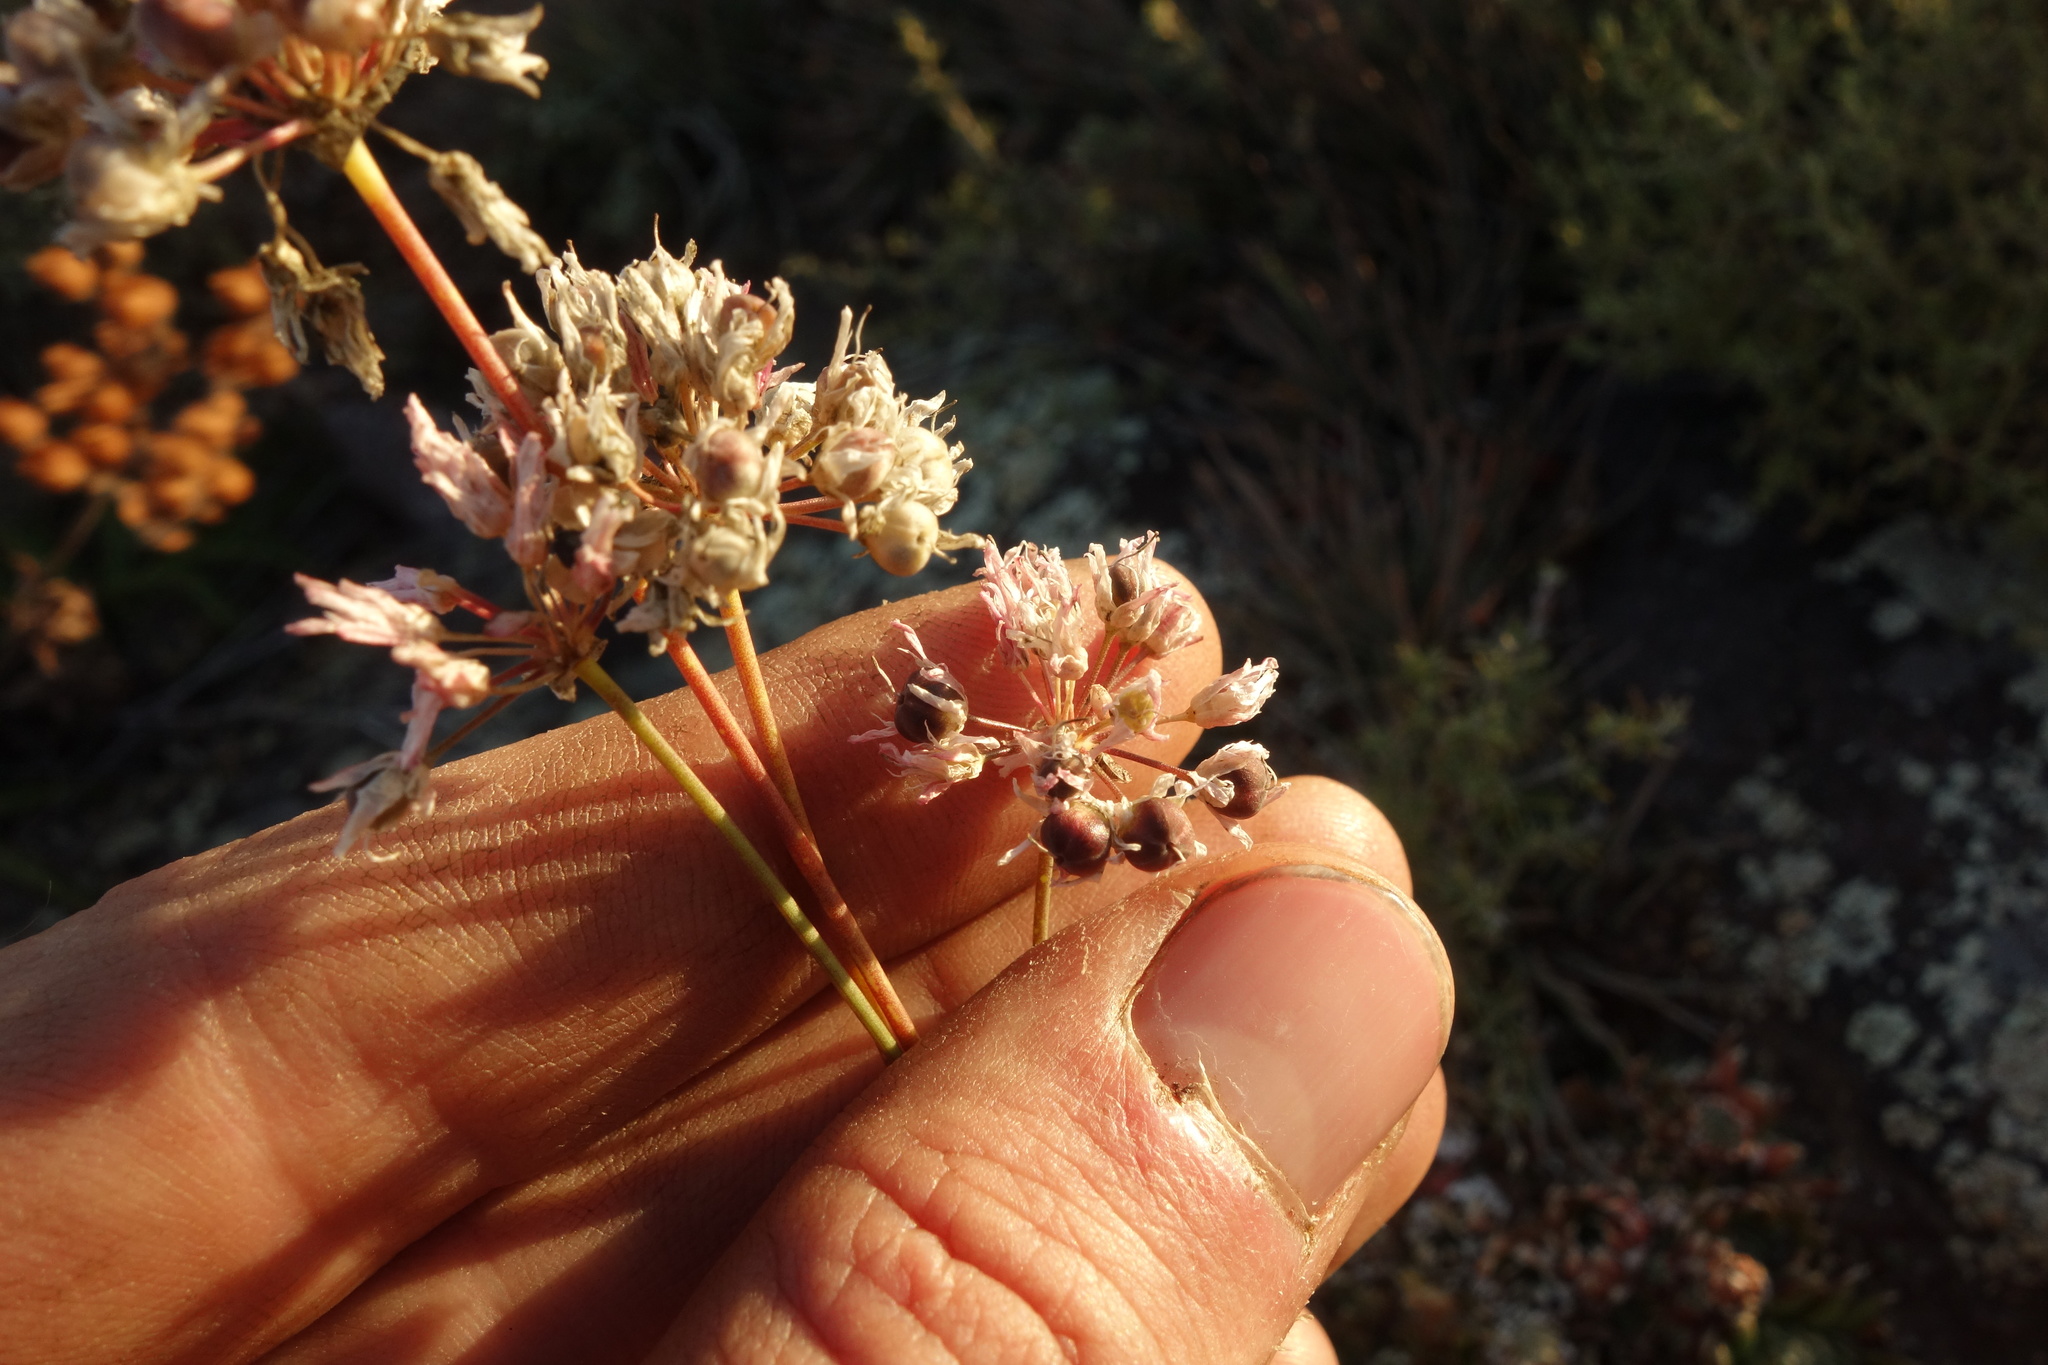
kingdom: Plantae
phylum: Tracheophyta
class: Liliopsida
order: Asparagales
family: Amaryllidaceae
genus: Allium
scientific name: Allium bidentatum
